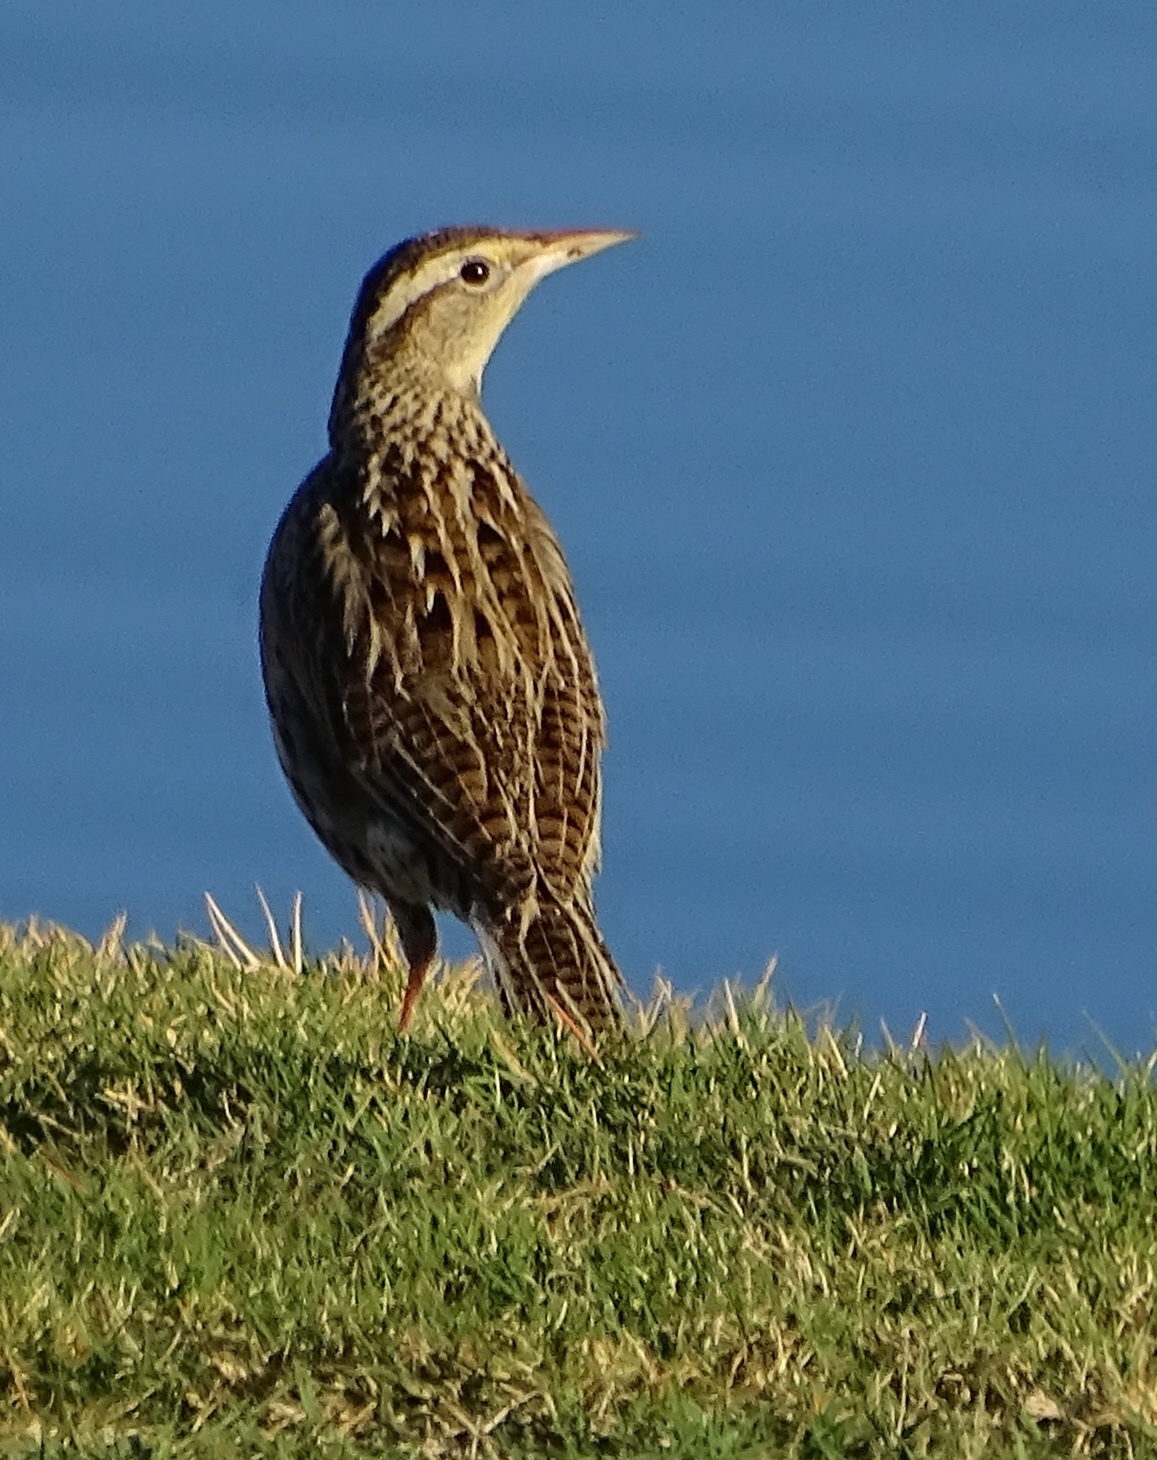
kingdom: Animalia
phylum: Chordata
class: Aves
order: Passeriformes
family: Icteridae
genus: Sturnella
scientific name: Sturnella neglecta
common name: Western meadowlark
